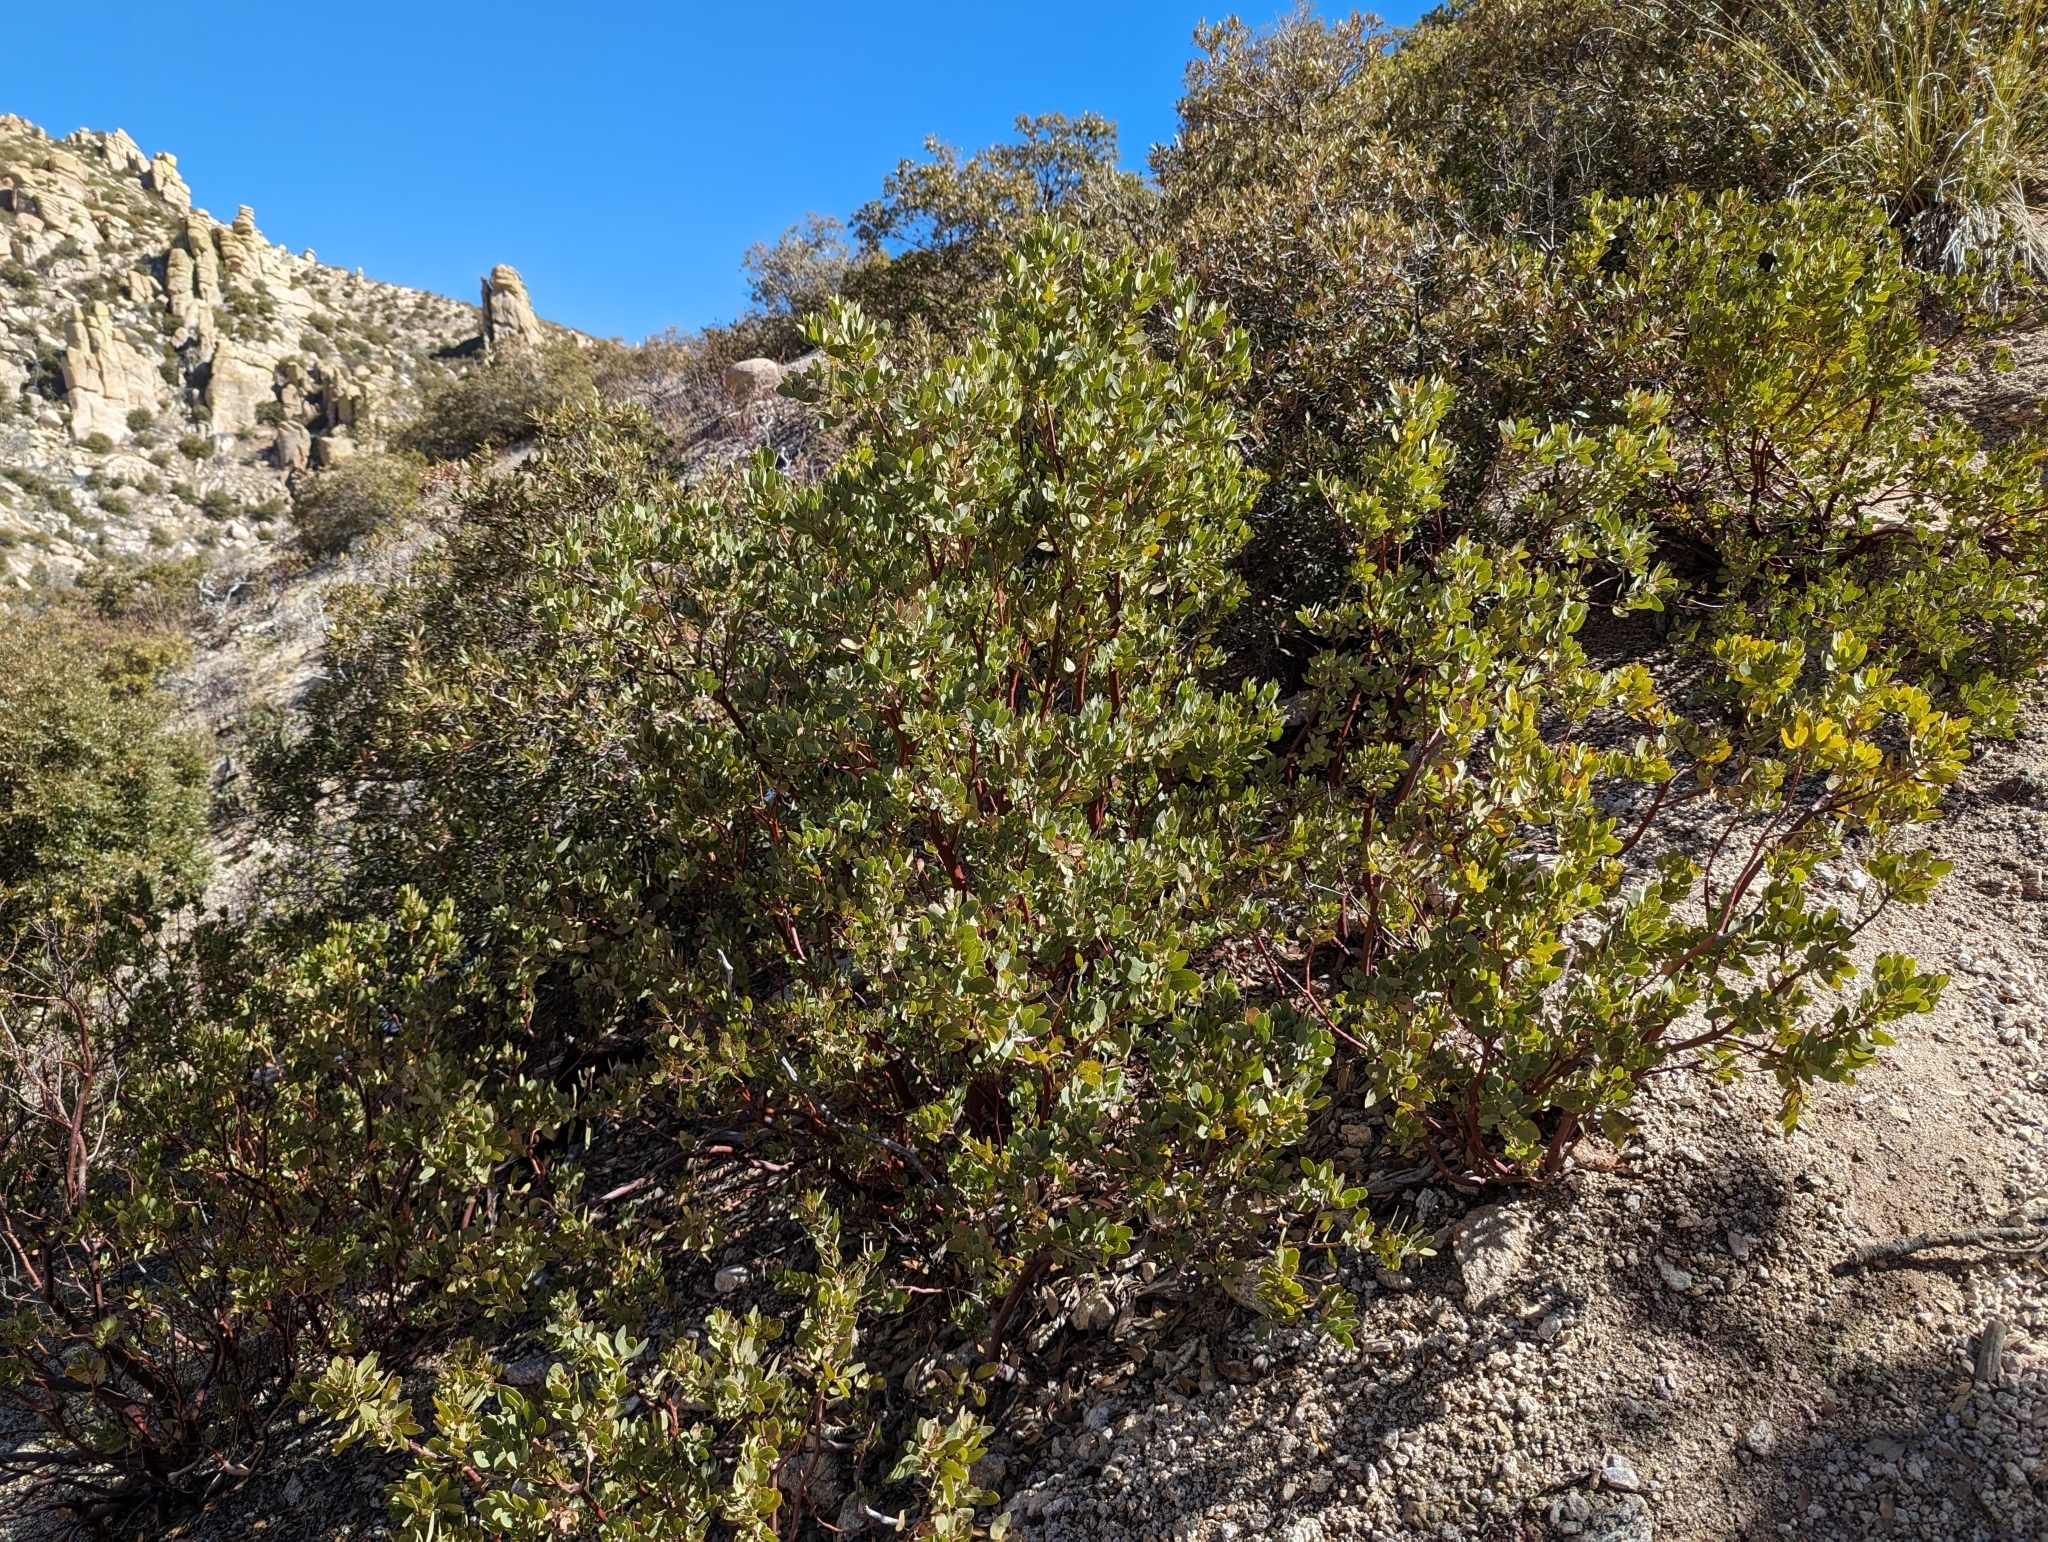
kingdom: Plantae
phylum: Tracheophyta
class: Magnoliopsida
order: Ericales
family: Ericaceae
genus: Arctostaphylos
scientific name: Arctostaphylos pringlei
